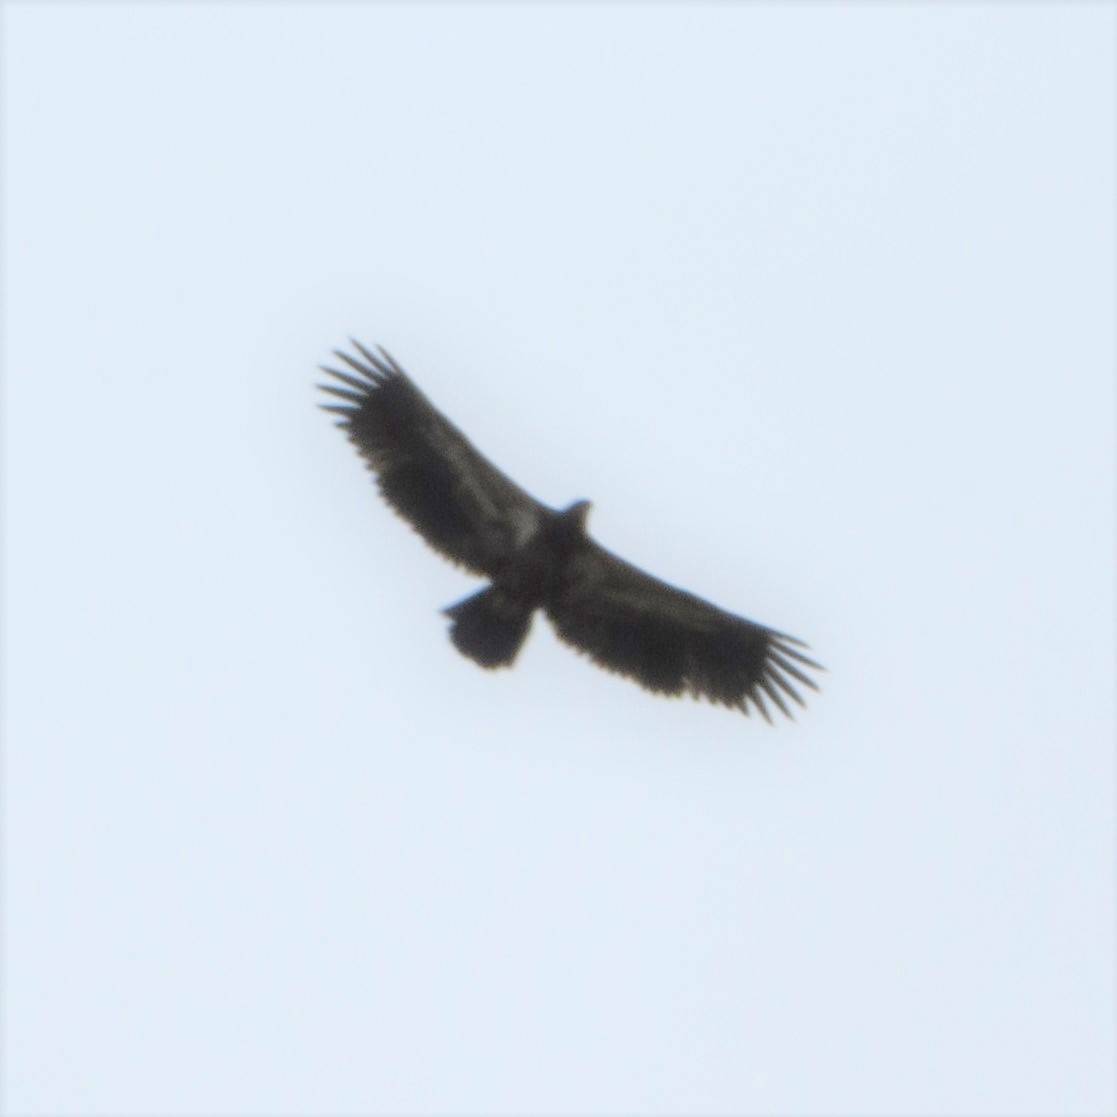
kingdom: Animalia
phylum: Chordata
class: Aves
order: Accipitriformes
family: Accipitridae
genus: Haliaeetus
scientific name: Haliaeetus leucocephalus
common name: Bald eagle
